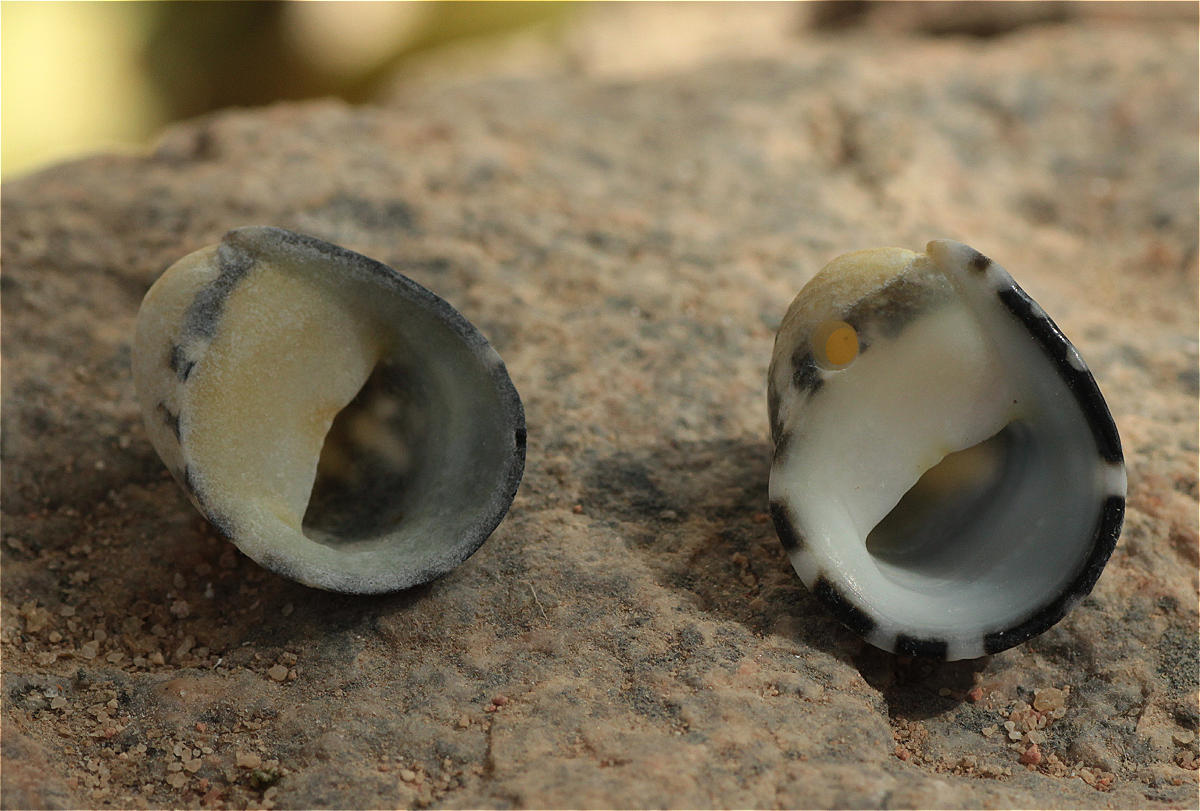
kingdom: Animalia
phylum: Mollusca
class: Gastropoda
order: Cycloneritida
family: Neritidae
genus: Nerita
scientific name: Nerita albicilla
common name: Blotched nerite
